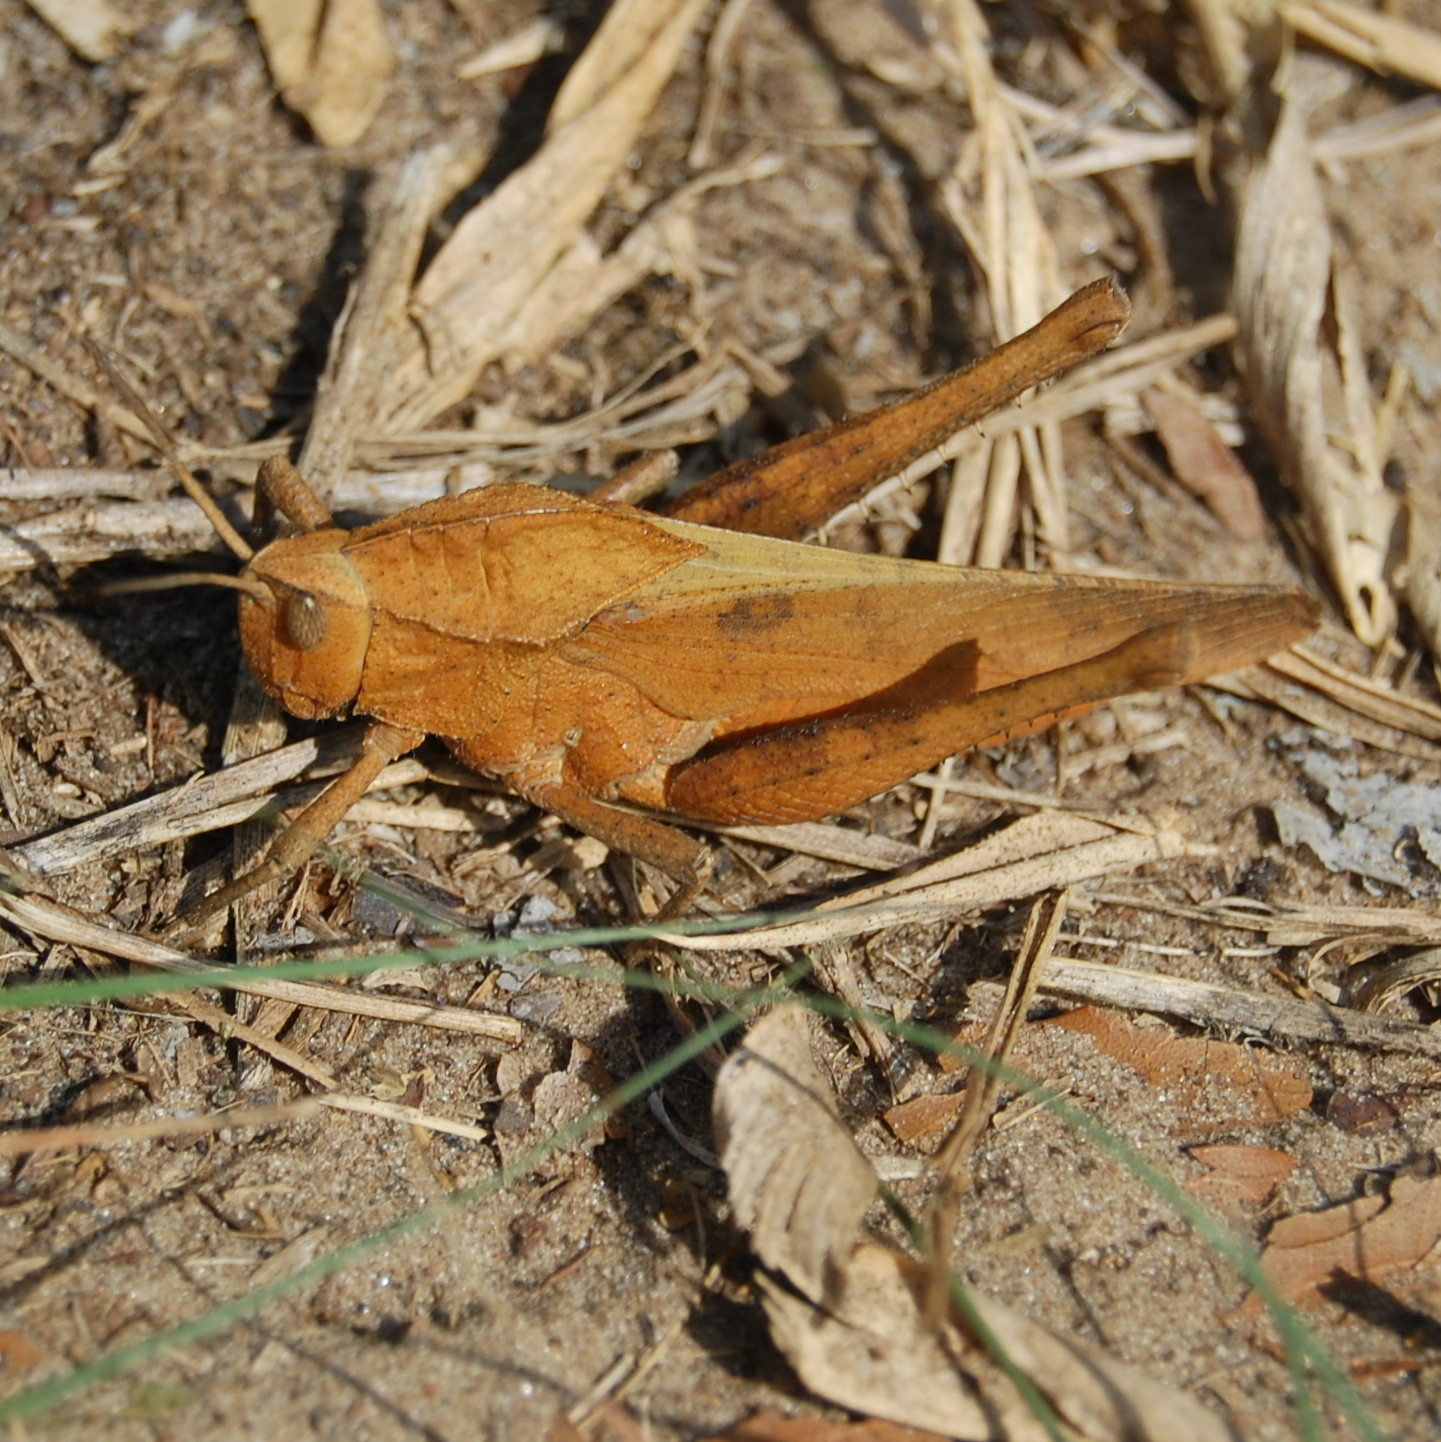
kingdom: Animalia
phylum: Arthropoda
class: Insecta
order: Orthoptera
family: Romaleidae
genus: Xyleus
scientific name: Xyleus discoideus
